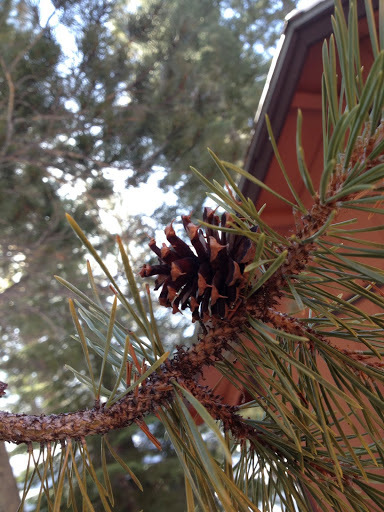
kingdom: Plantae
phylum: Tracheophyta
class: Pinopsida
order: Pinales
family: Pinaceae
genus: Pinus
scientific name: Pinus contorta
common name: Lodgepole pine
